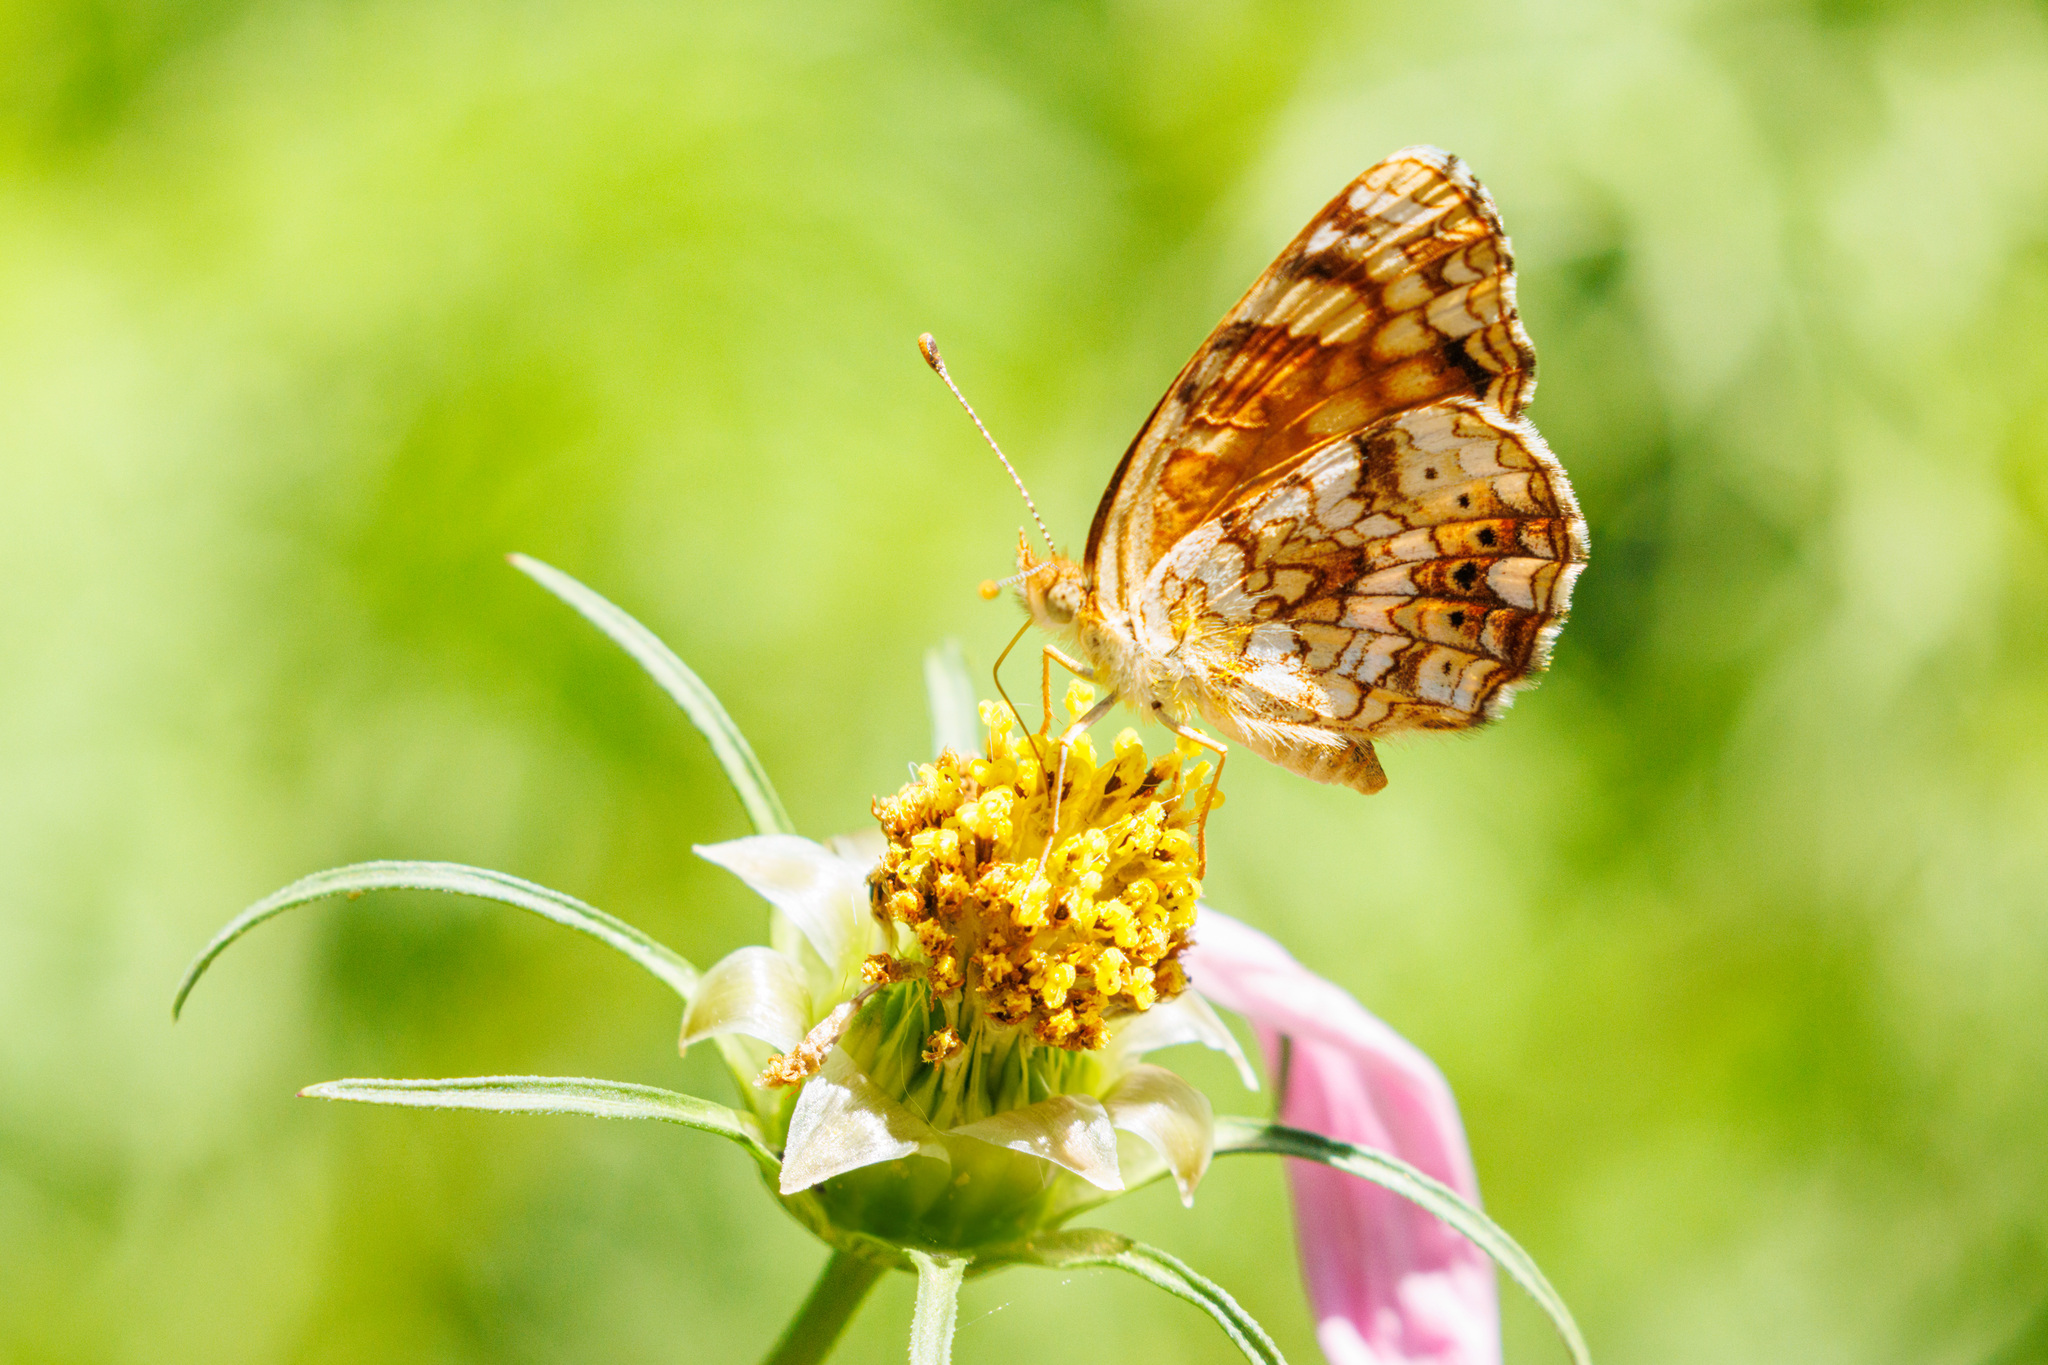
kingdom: Animalia
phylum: Arthropoda
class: Insecta
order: Lepidoptera
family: Nymphalidae
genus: Eresia
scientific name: Eresia aveyrona
